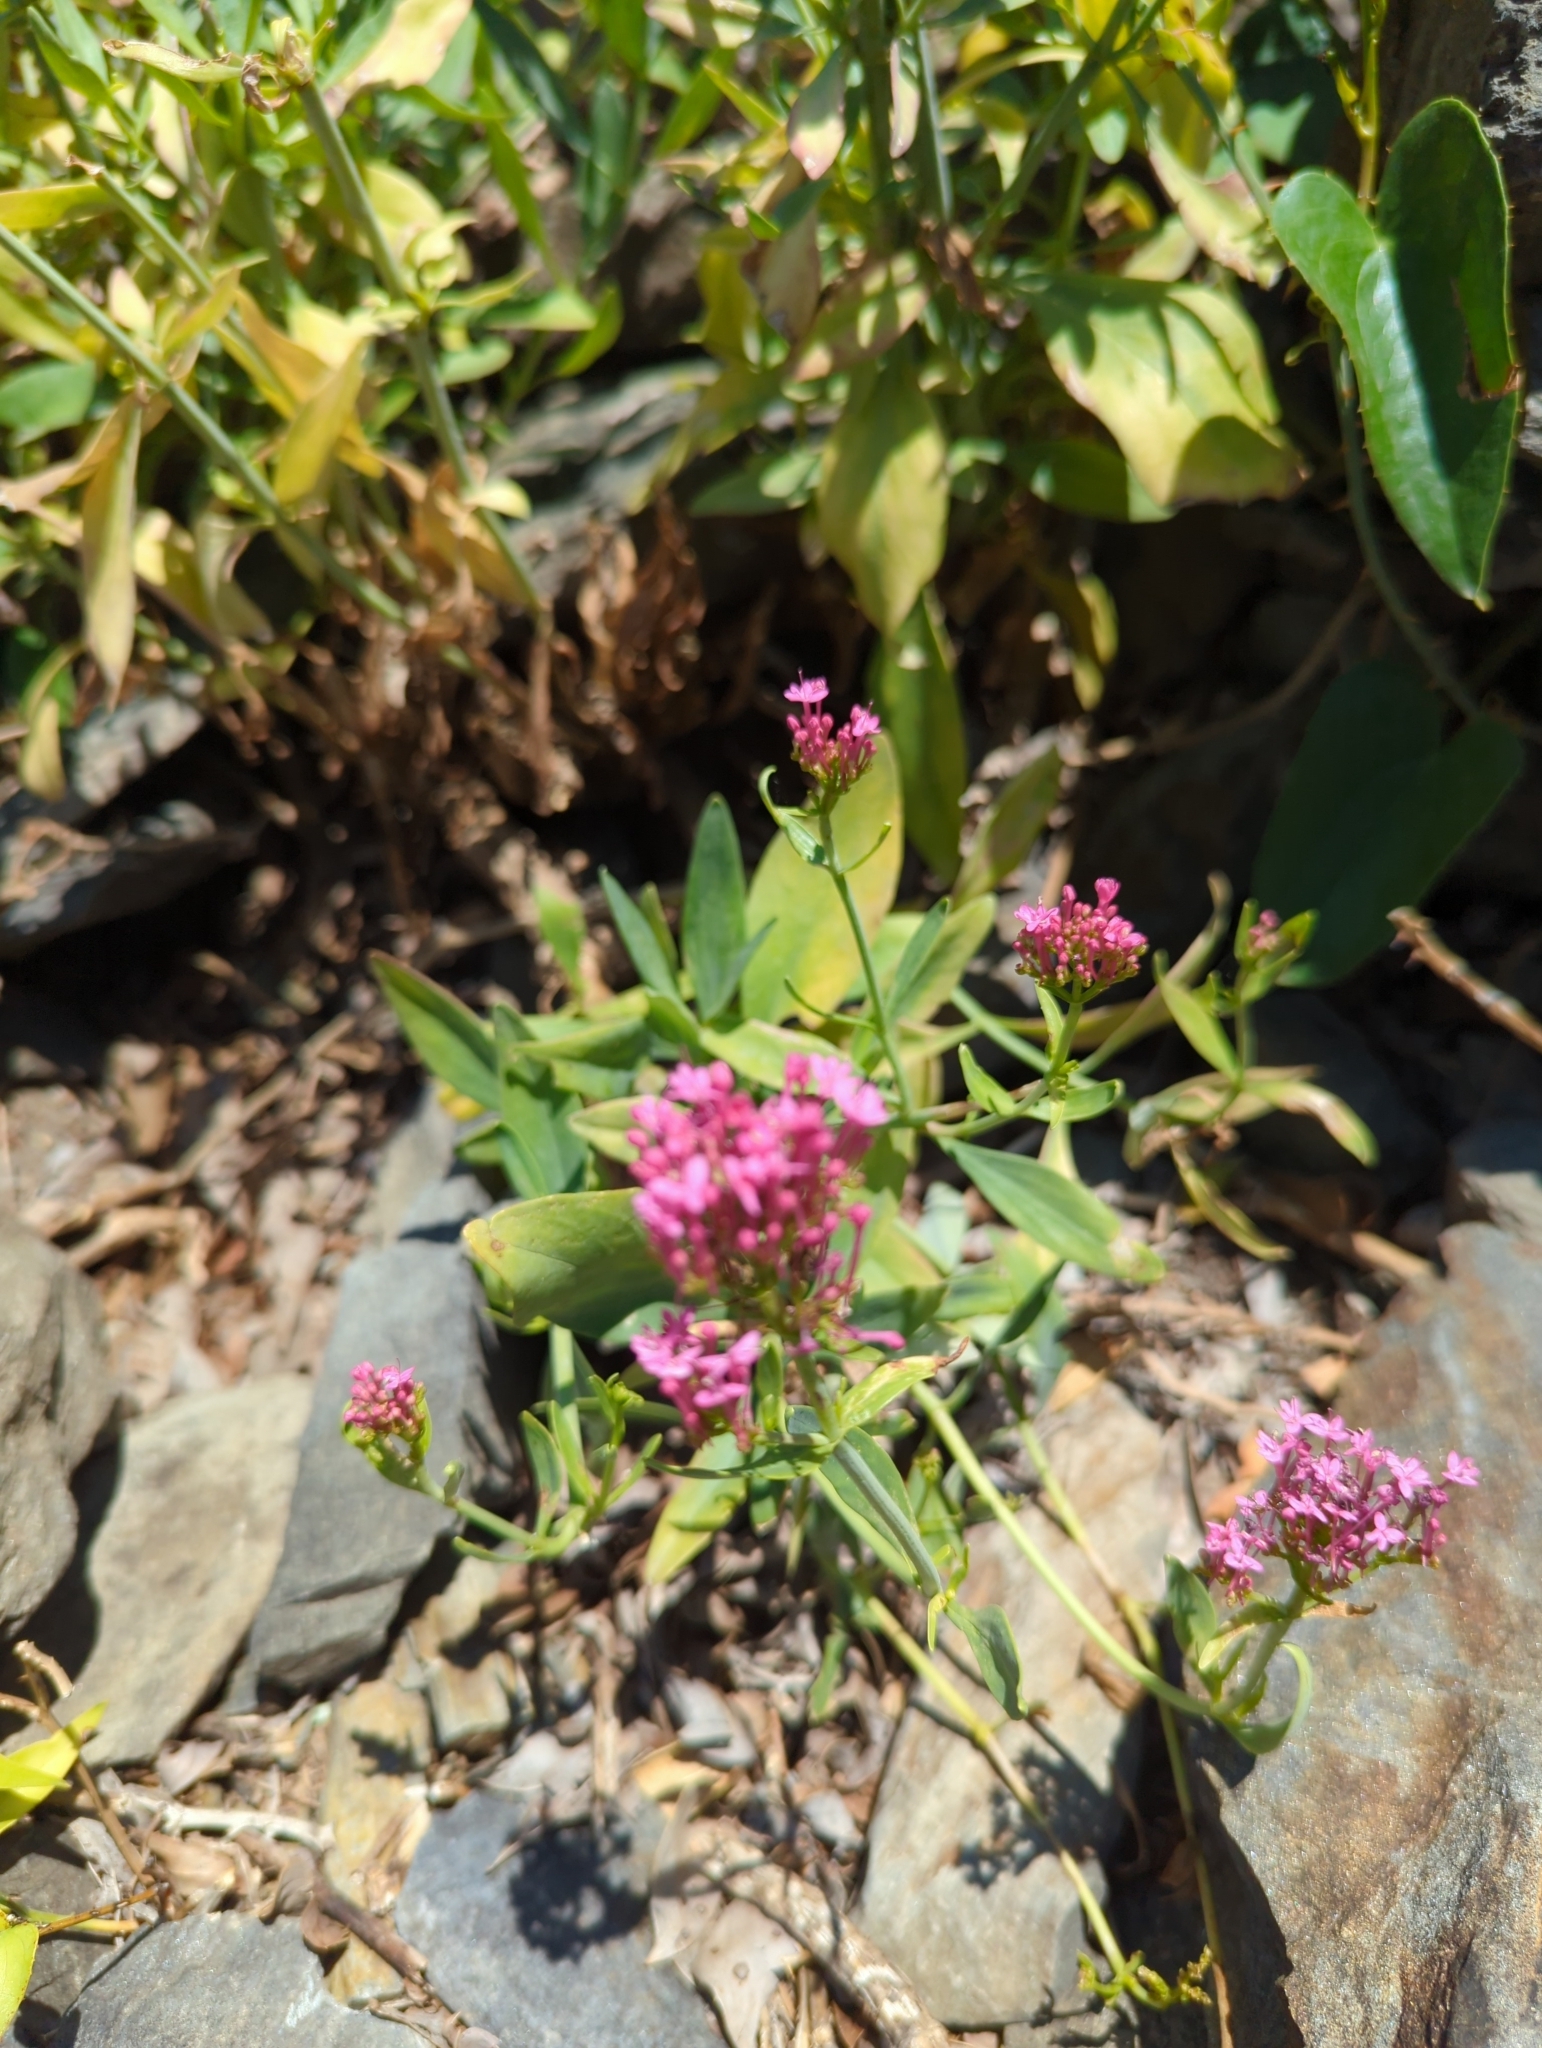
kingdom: Plantae
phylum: Tracheophyta
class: Magnoliopsida
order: Dipsacales
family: Caprifoliaceae
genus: Centranthus
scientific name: Centranthus ruber
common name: Red valerian
